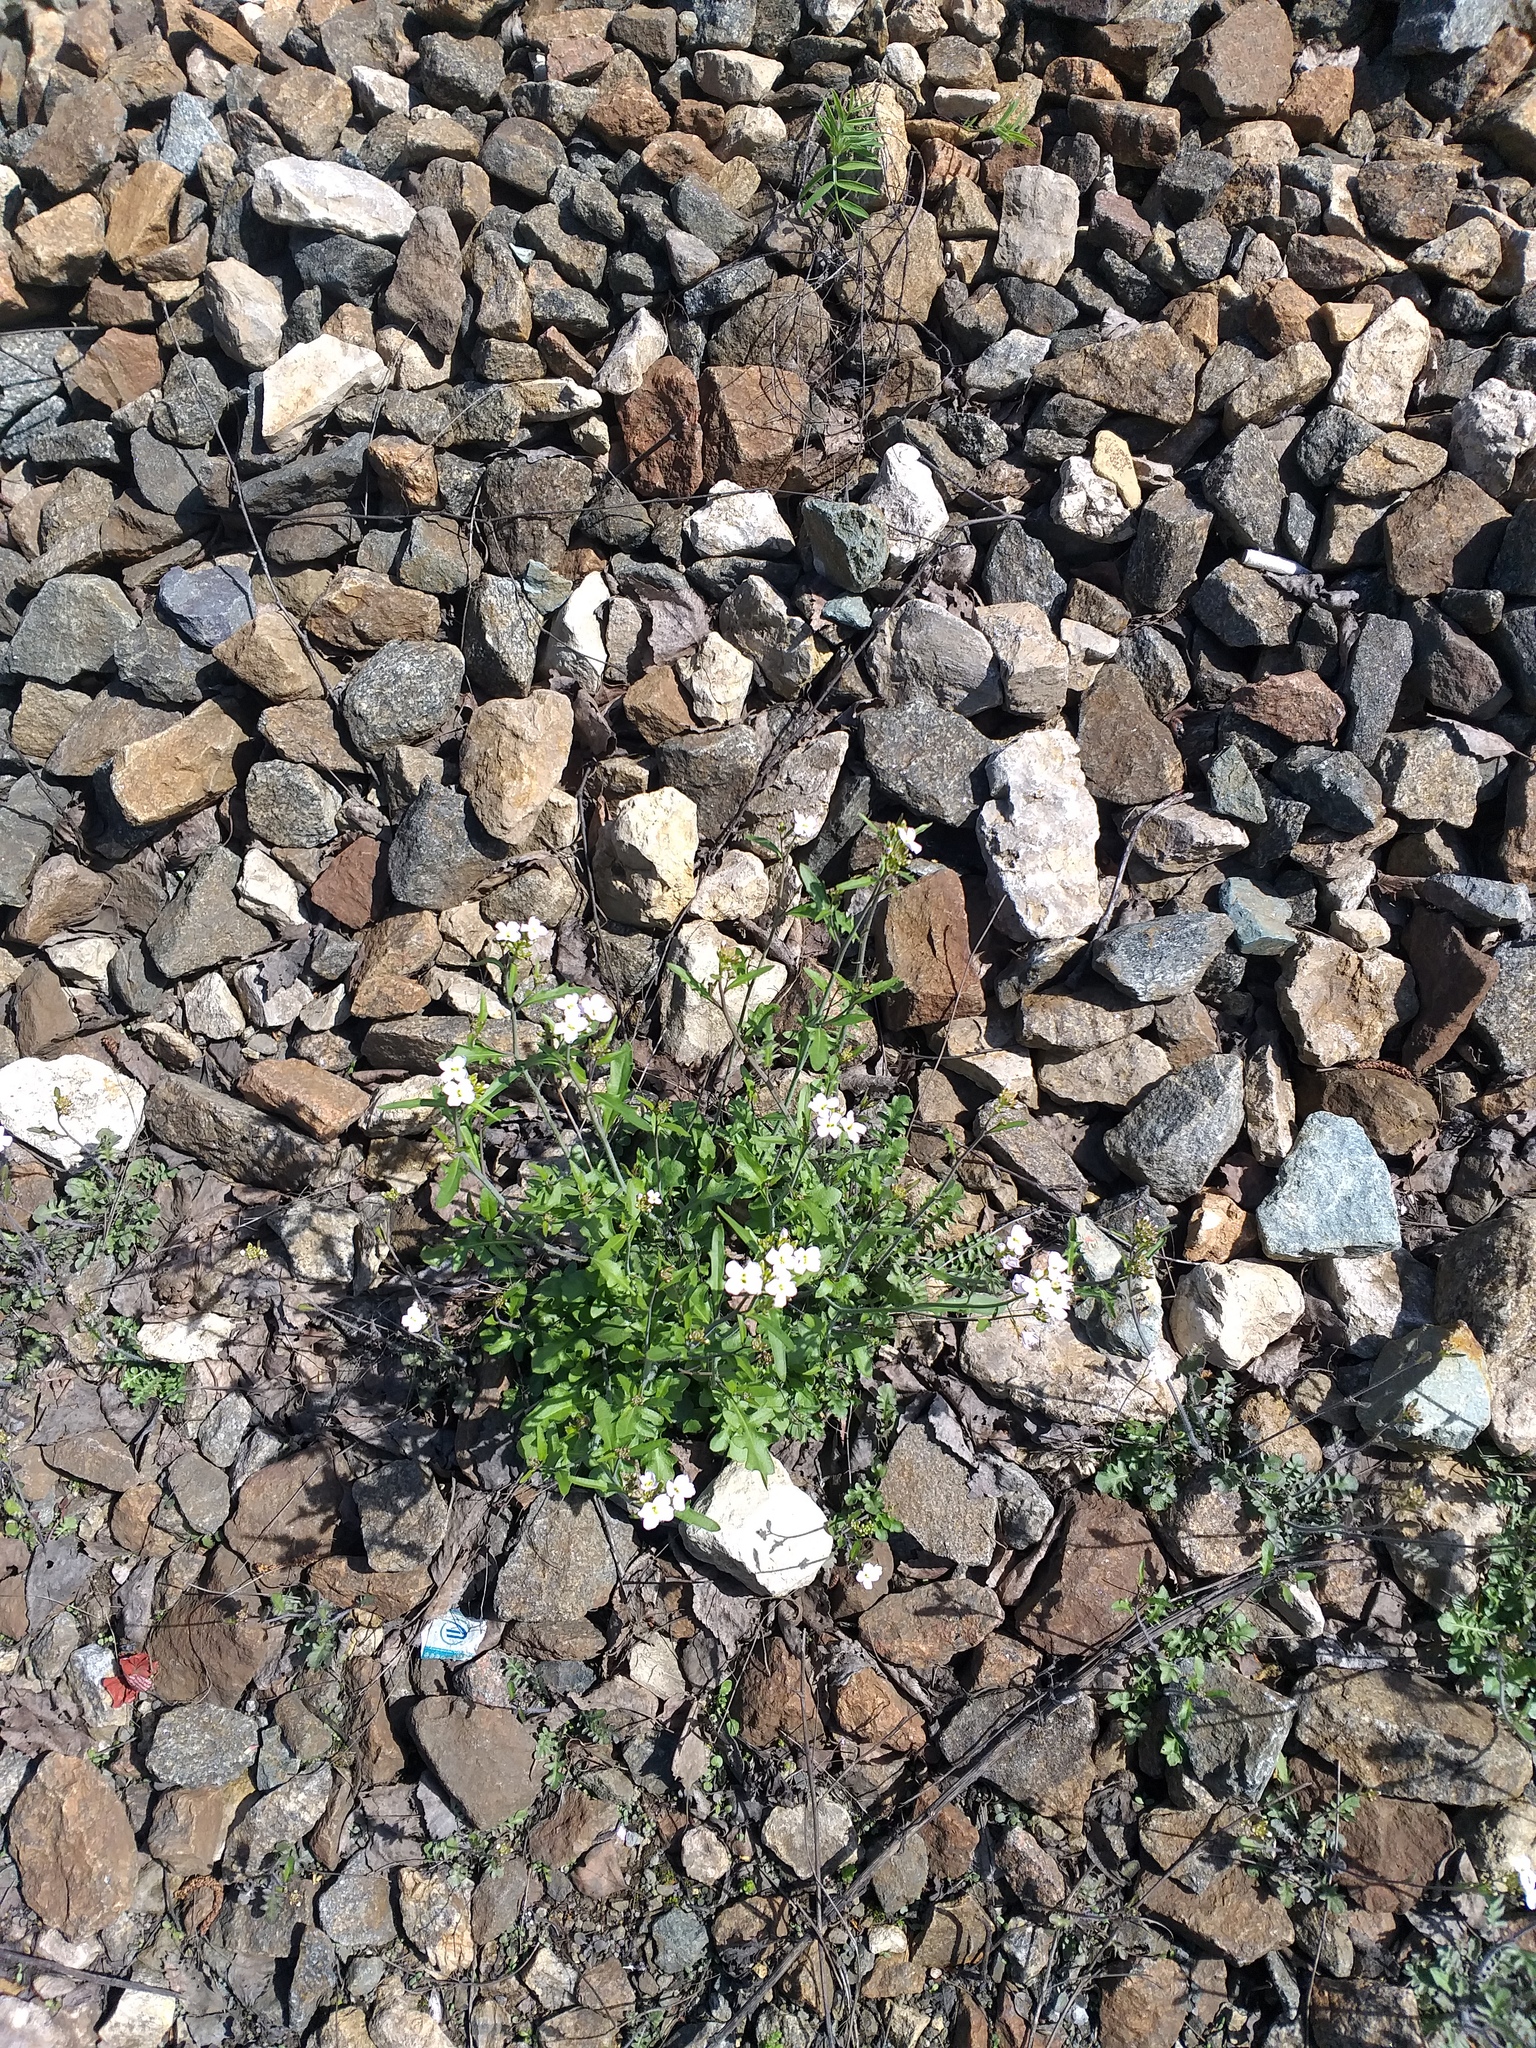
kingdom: Plantae
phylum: Tracheophyta
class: Magnoliopsida
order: Brassicales
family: Brassicaceae
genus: Arabidopsis
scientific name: Arabidopsis arenosa
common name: Sand rock-cress
